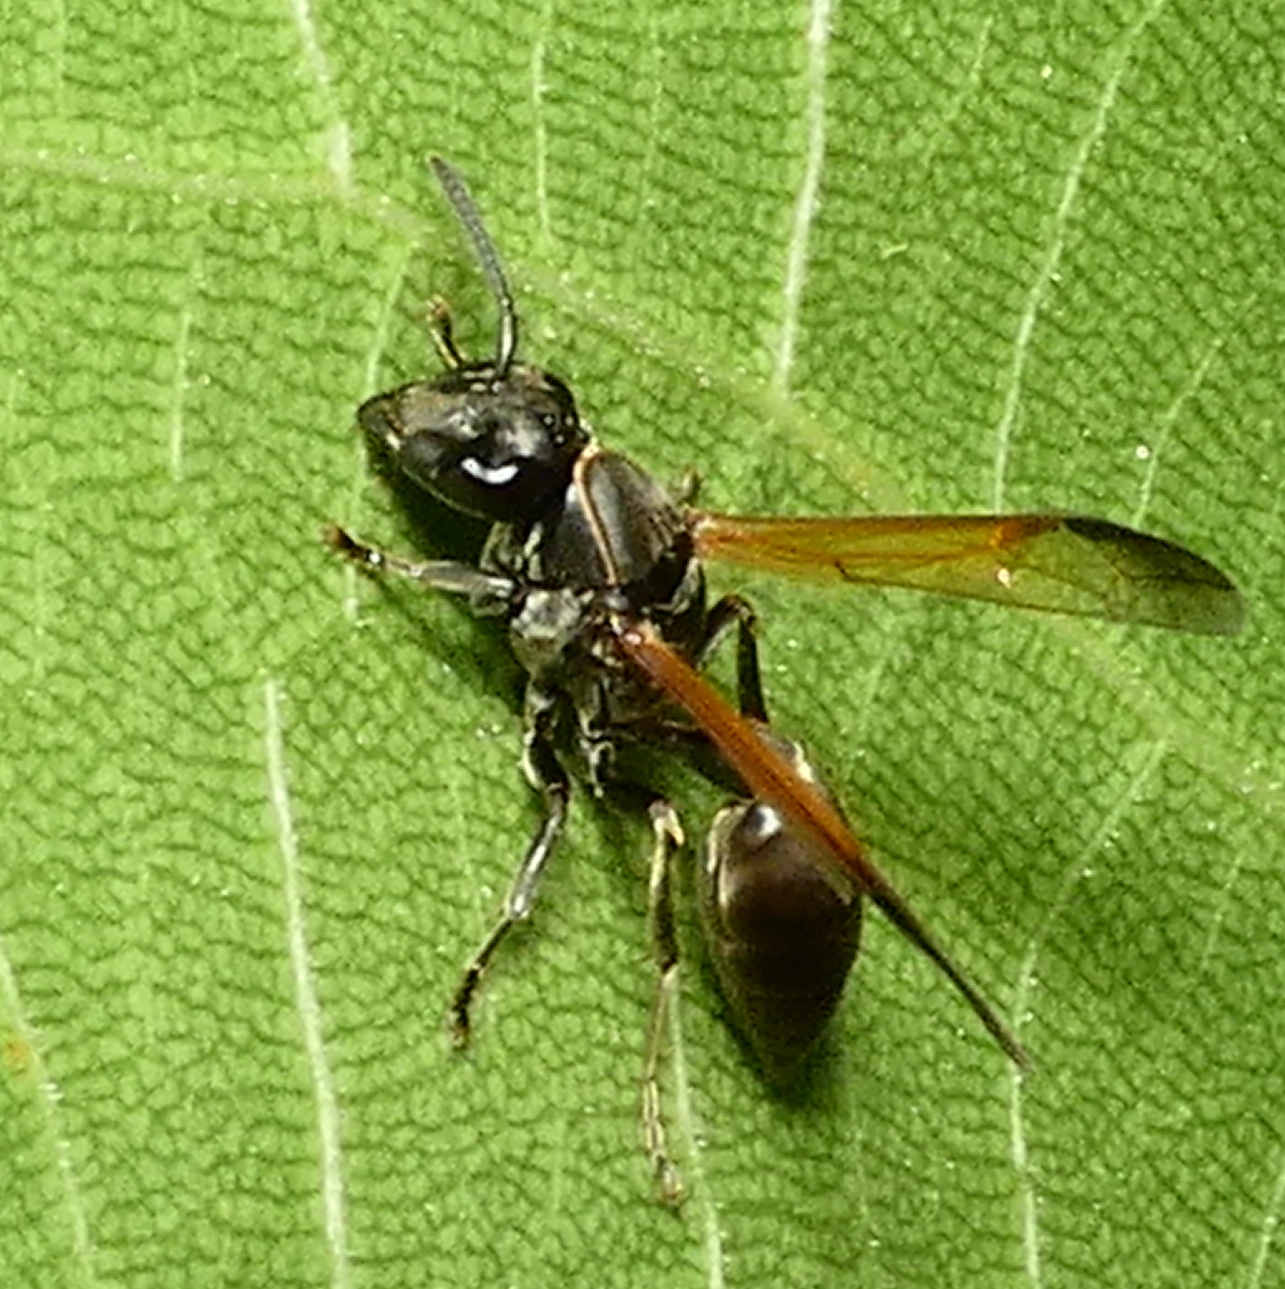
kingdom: Animalia
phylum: Arthropoda
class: Insecta
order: Hymenoptera
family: Eumenidae
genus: Polybia
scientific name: Polybia rejecta
